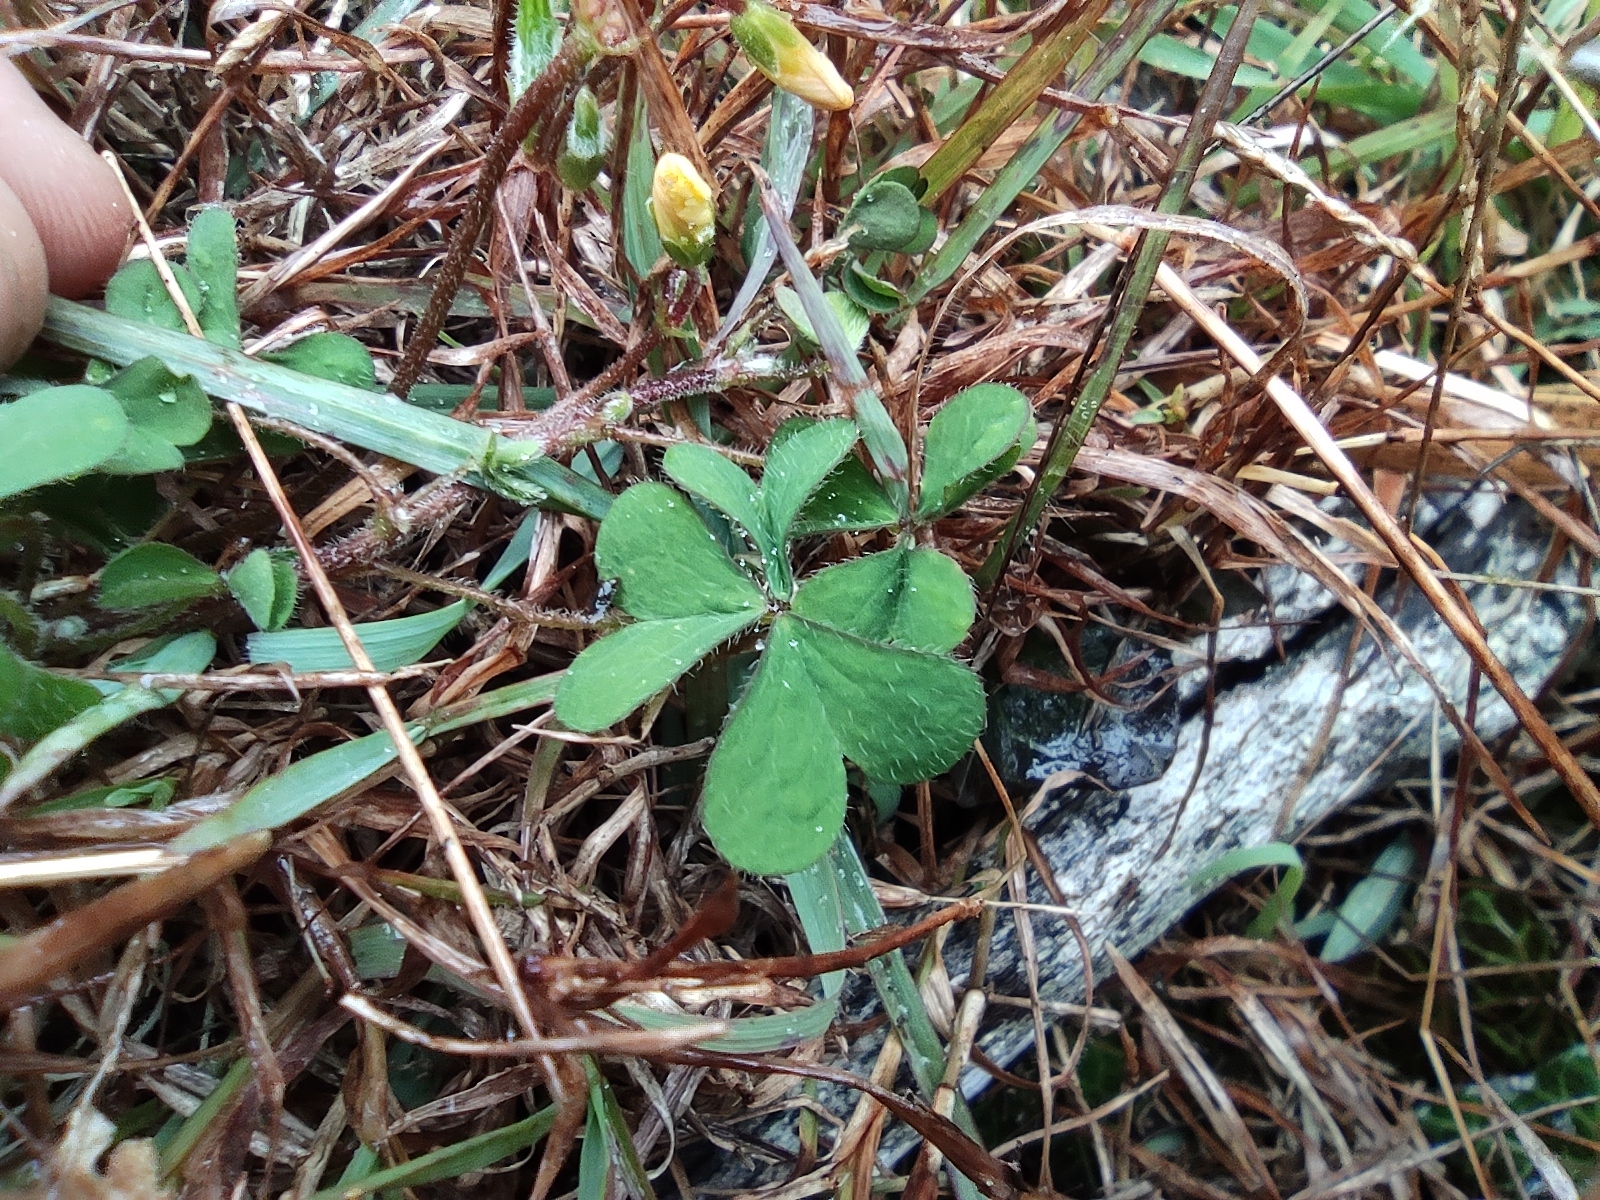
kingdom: Plantae
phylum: Tracheophyta
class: Magnoliopsida
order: Oxalidales
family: Oxalidaceae
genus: Oxalis
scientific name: Oxalis corniculata
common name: Procumbent yellow-sorrel
